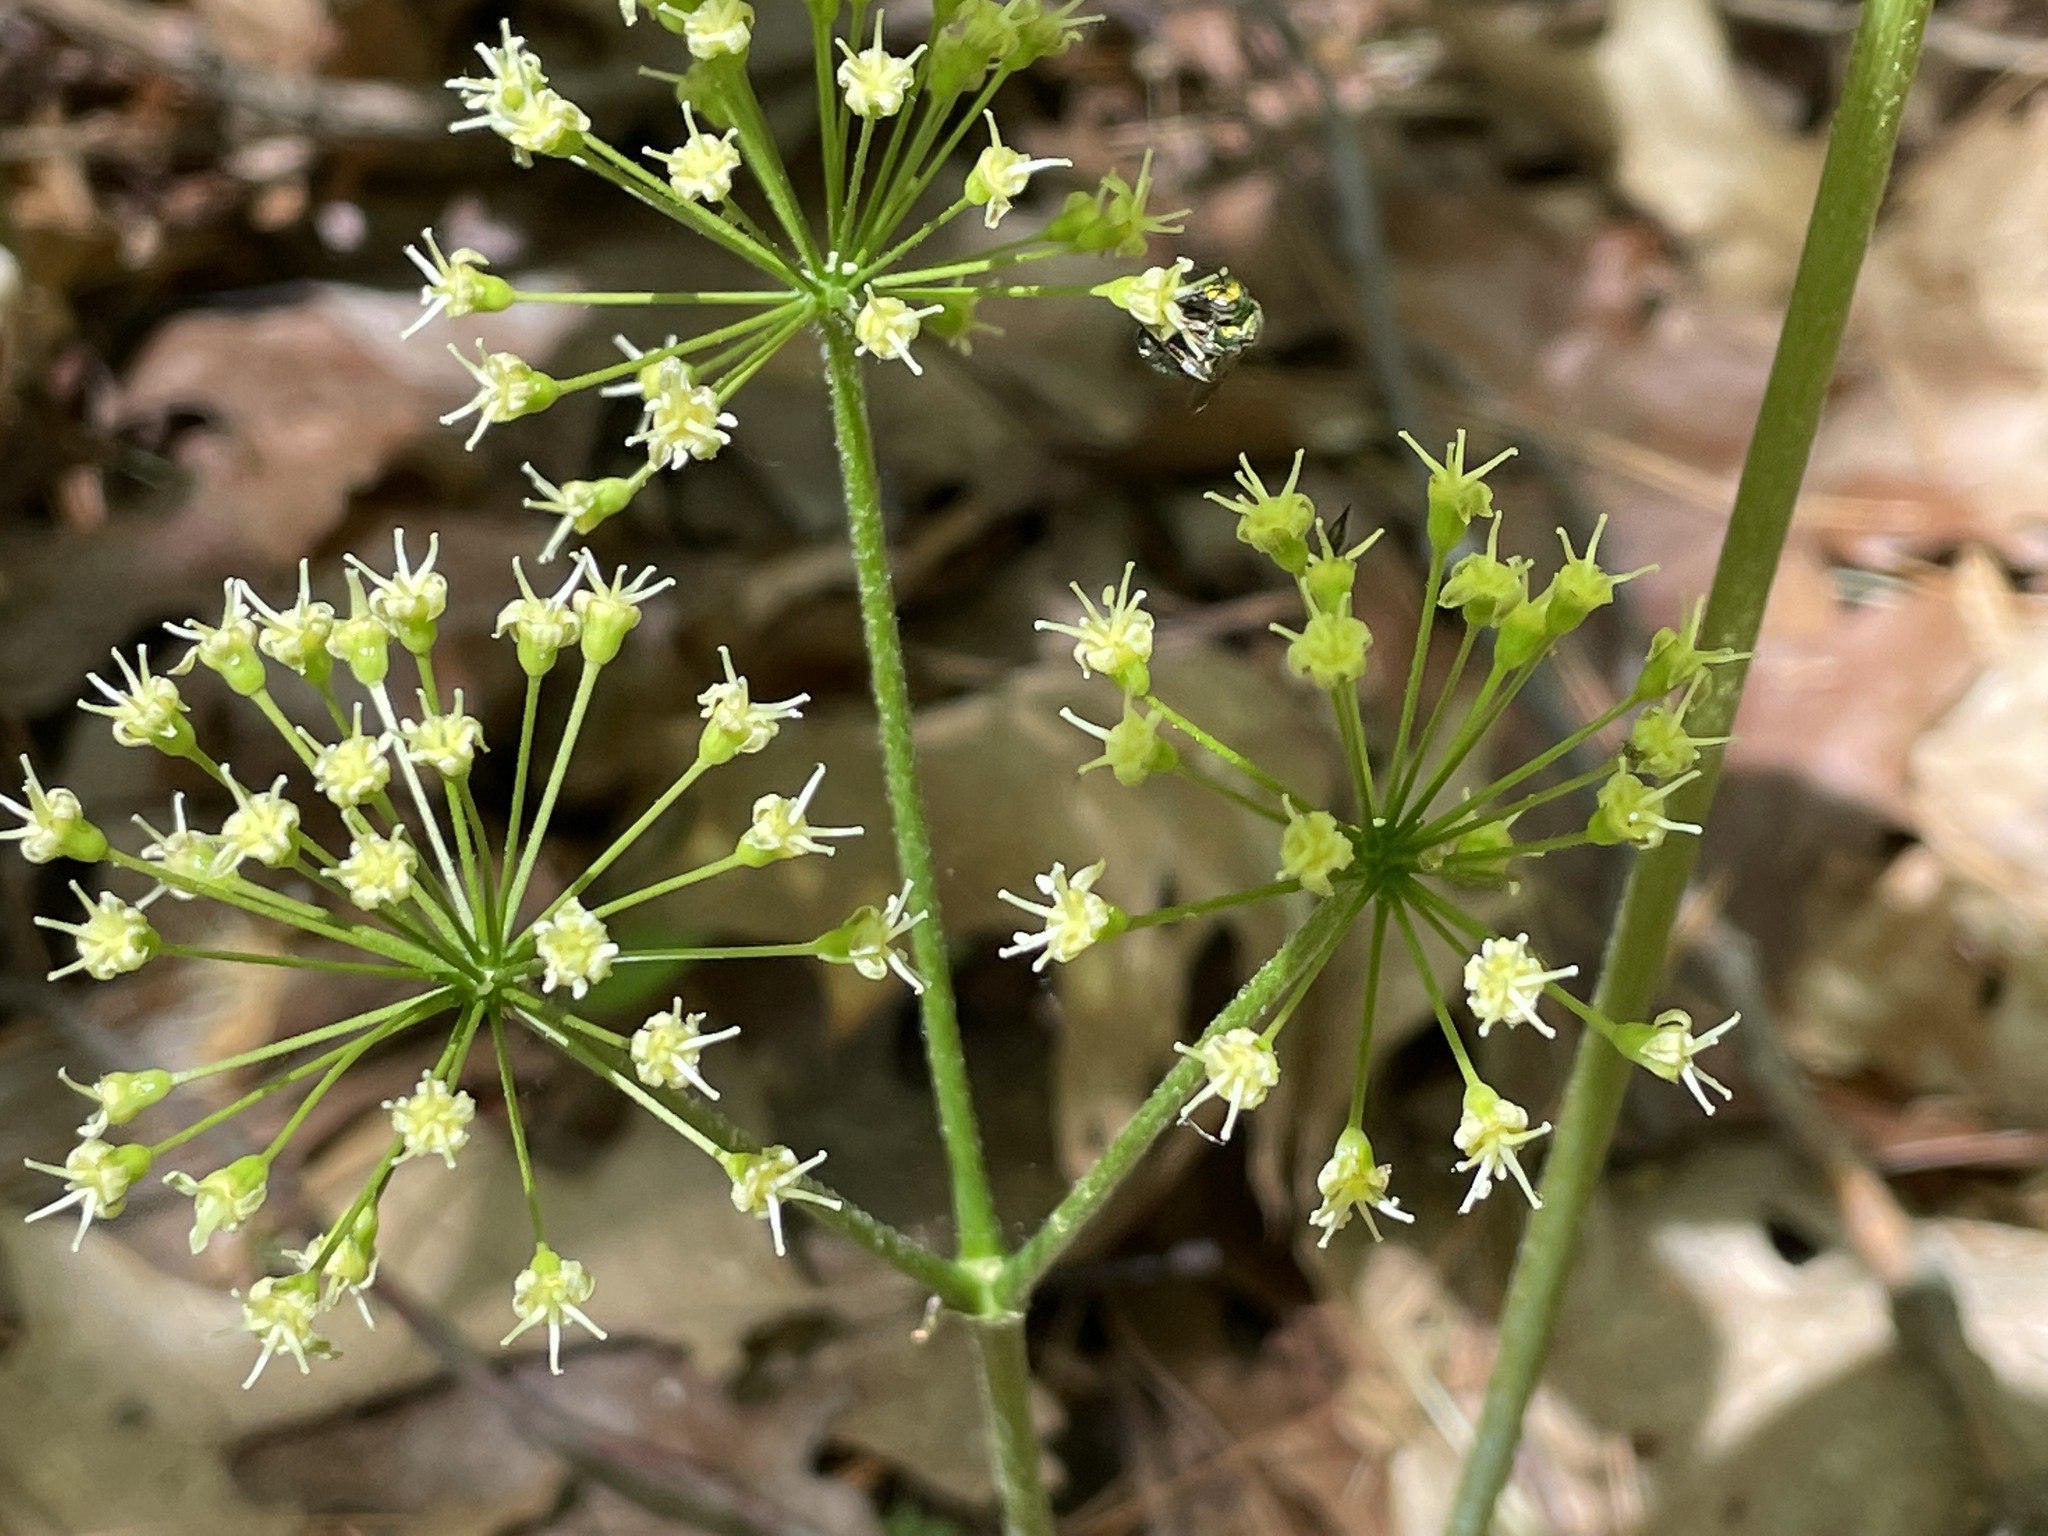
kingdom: Plantae
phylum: Tracheophyta
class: Magnoliopsida
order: Apiales
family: Araliaceae
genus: Aralia
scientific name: Aralia nudicaulis
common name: Wild sarsaparilla
